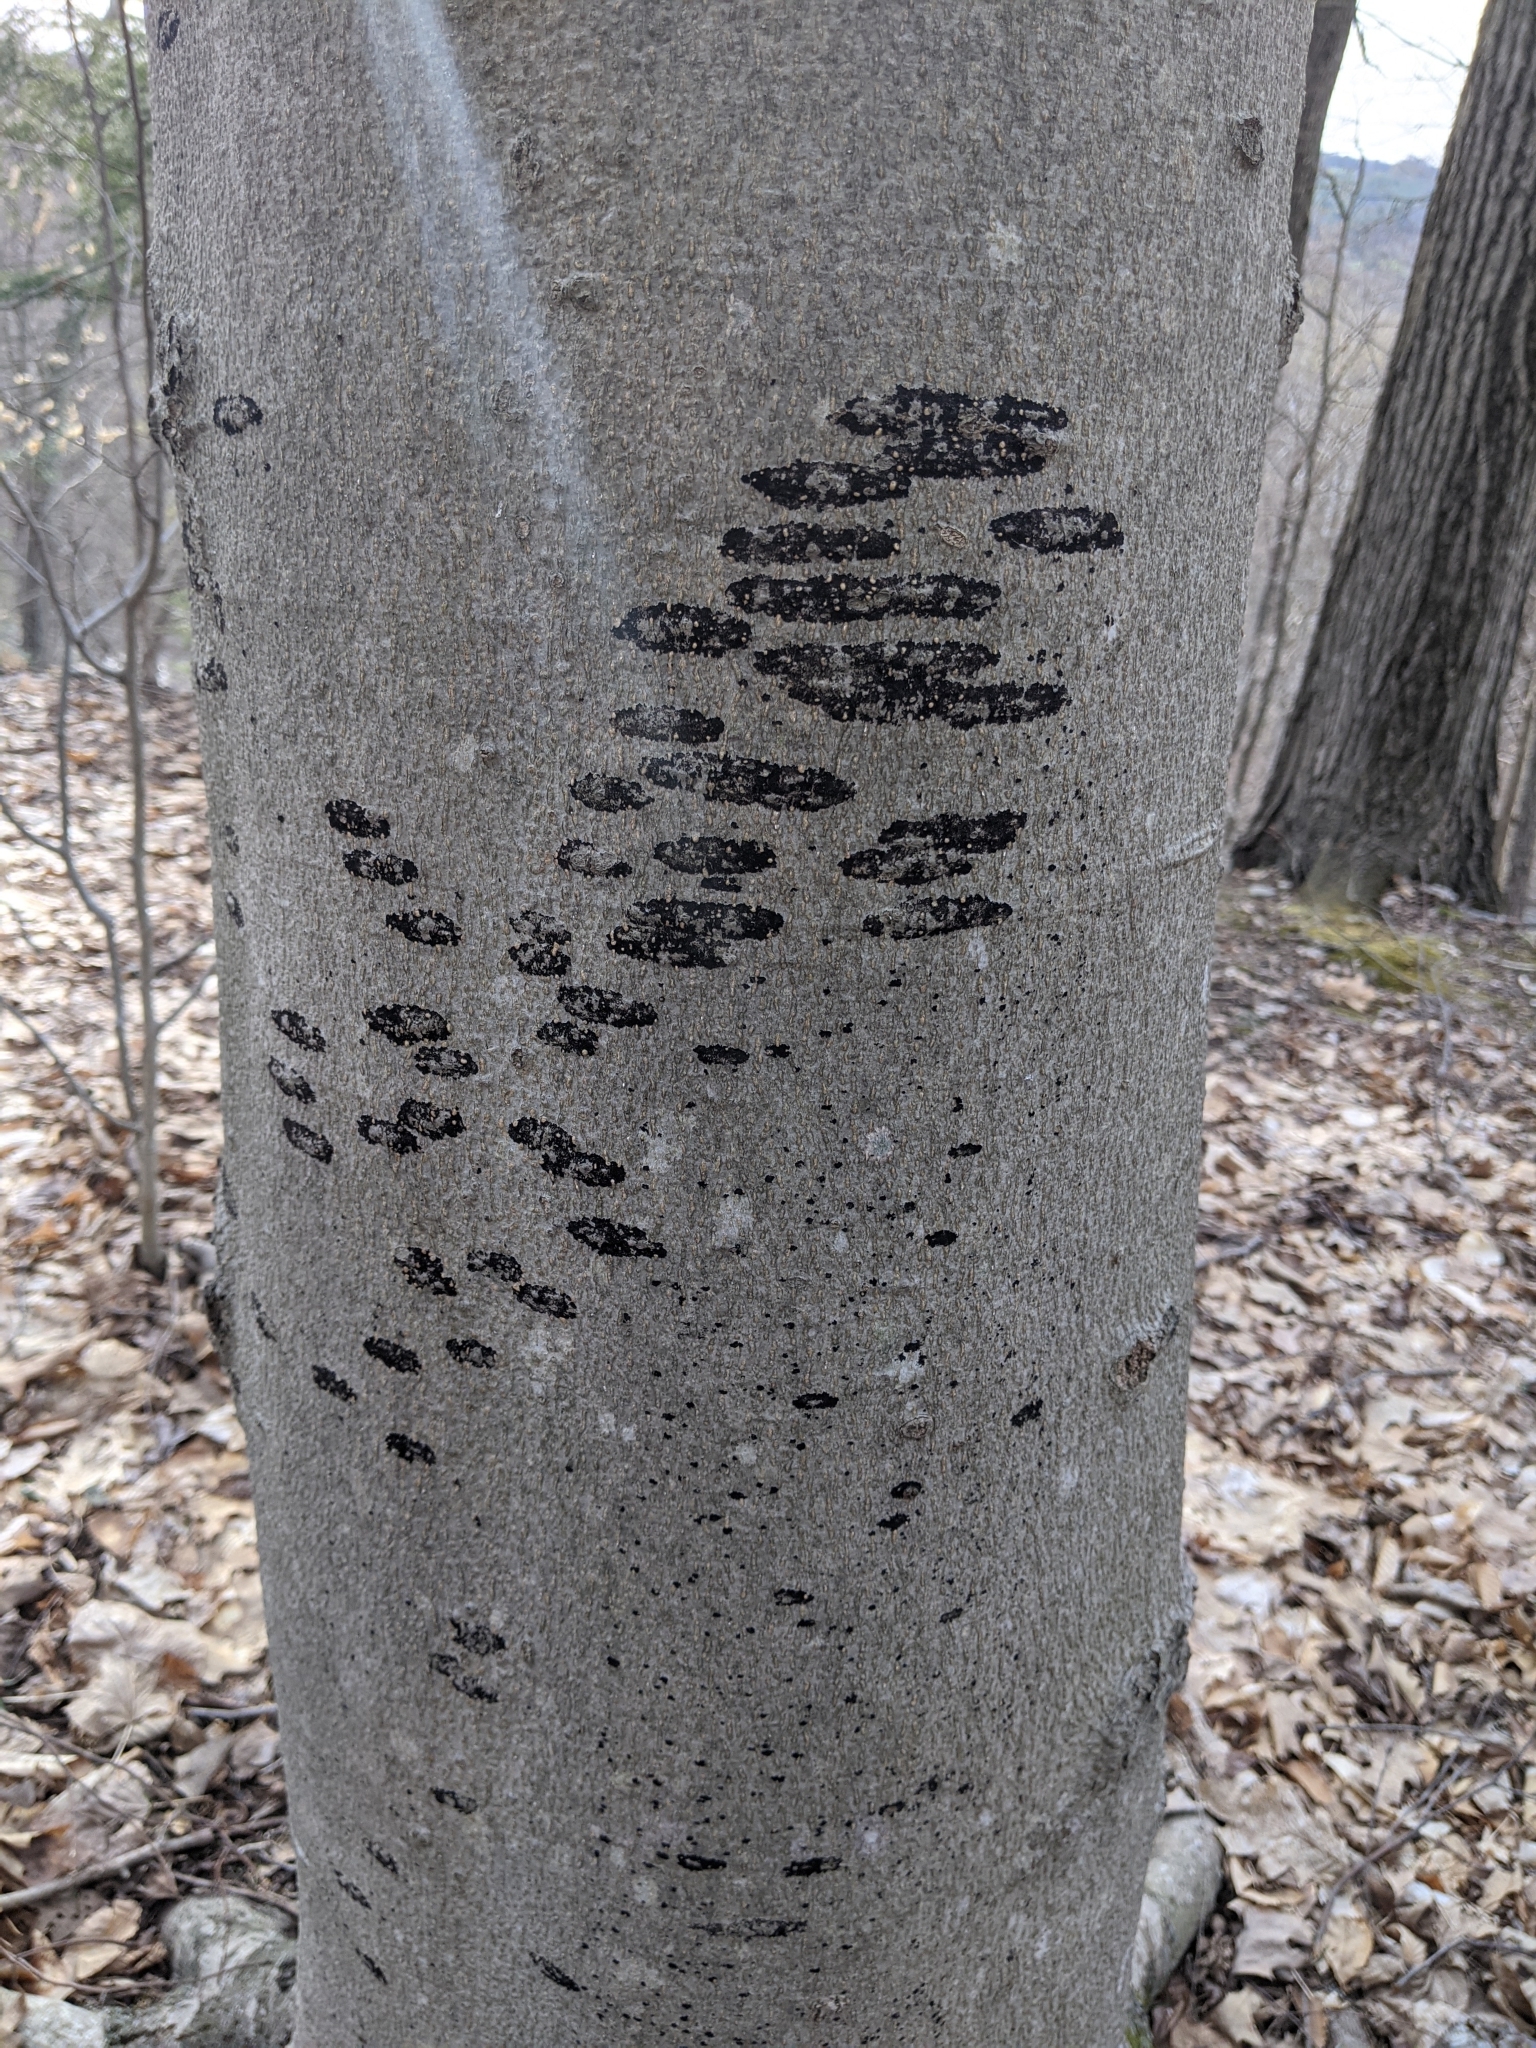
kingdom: Fungi
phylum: Ascomycota
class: Leotiomycetes
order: Rhytismatales
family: Ascodichaenaceae
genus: Ascodichaena
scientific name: Ascodichaena rugosa
